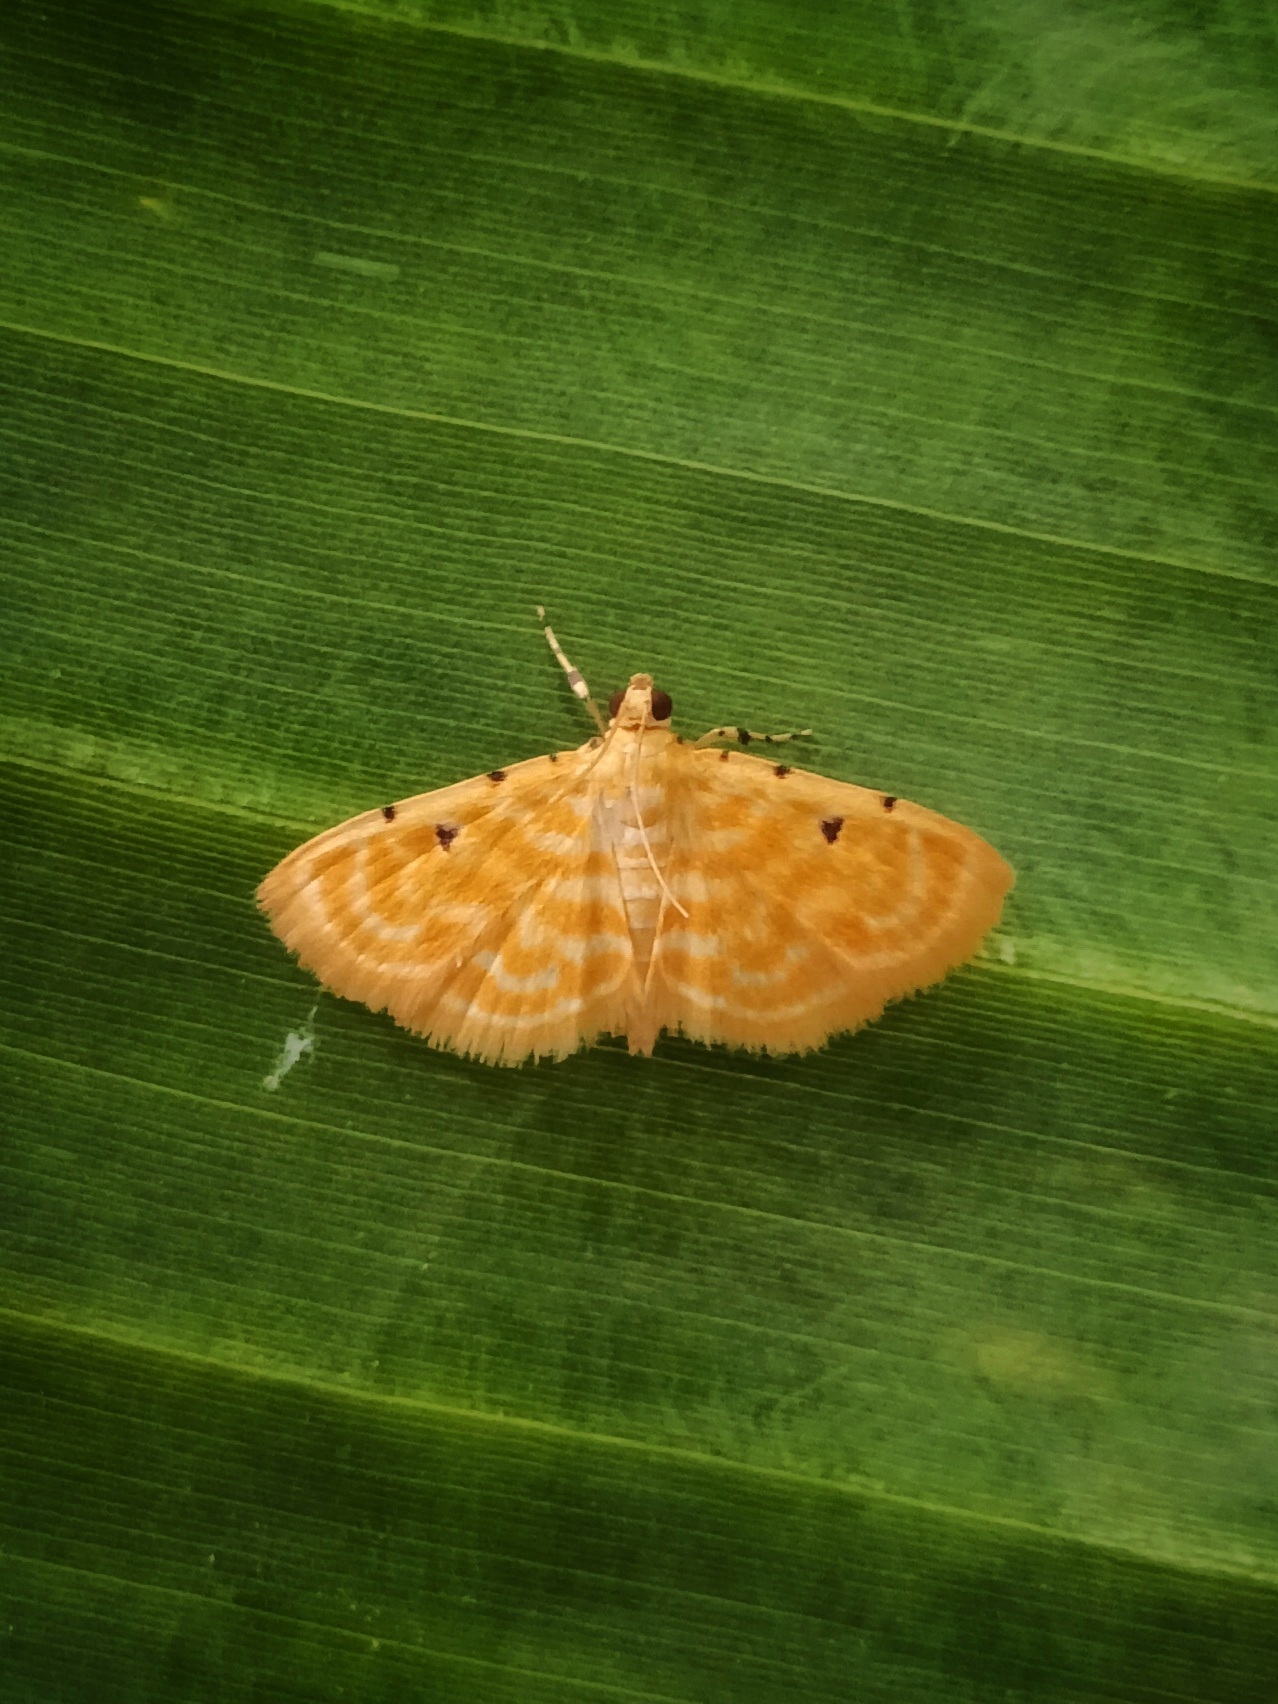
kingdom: Animalia
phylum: Arthropoda
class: Insecta
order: Lepidoptera
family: Crambidae
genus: Notarcha
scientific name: Notarcha aurolinealis
